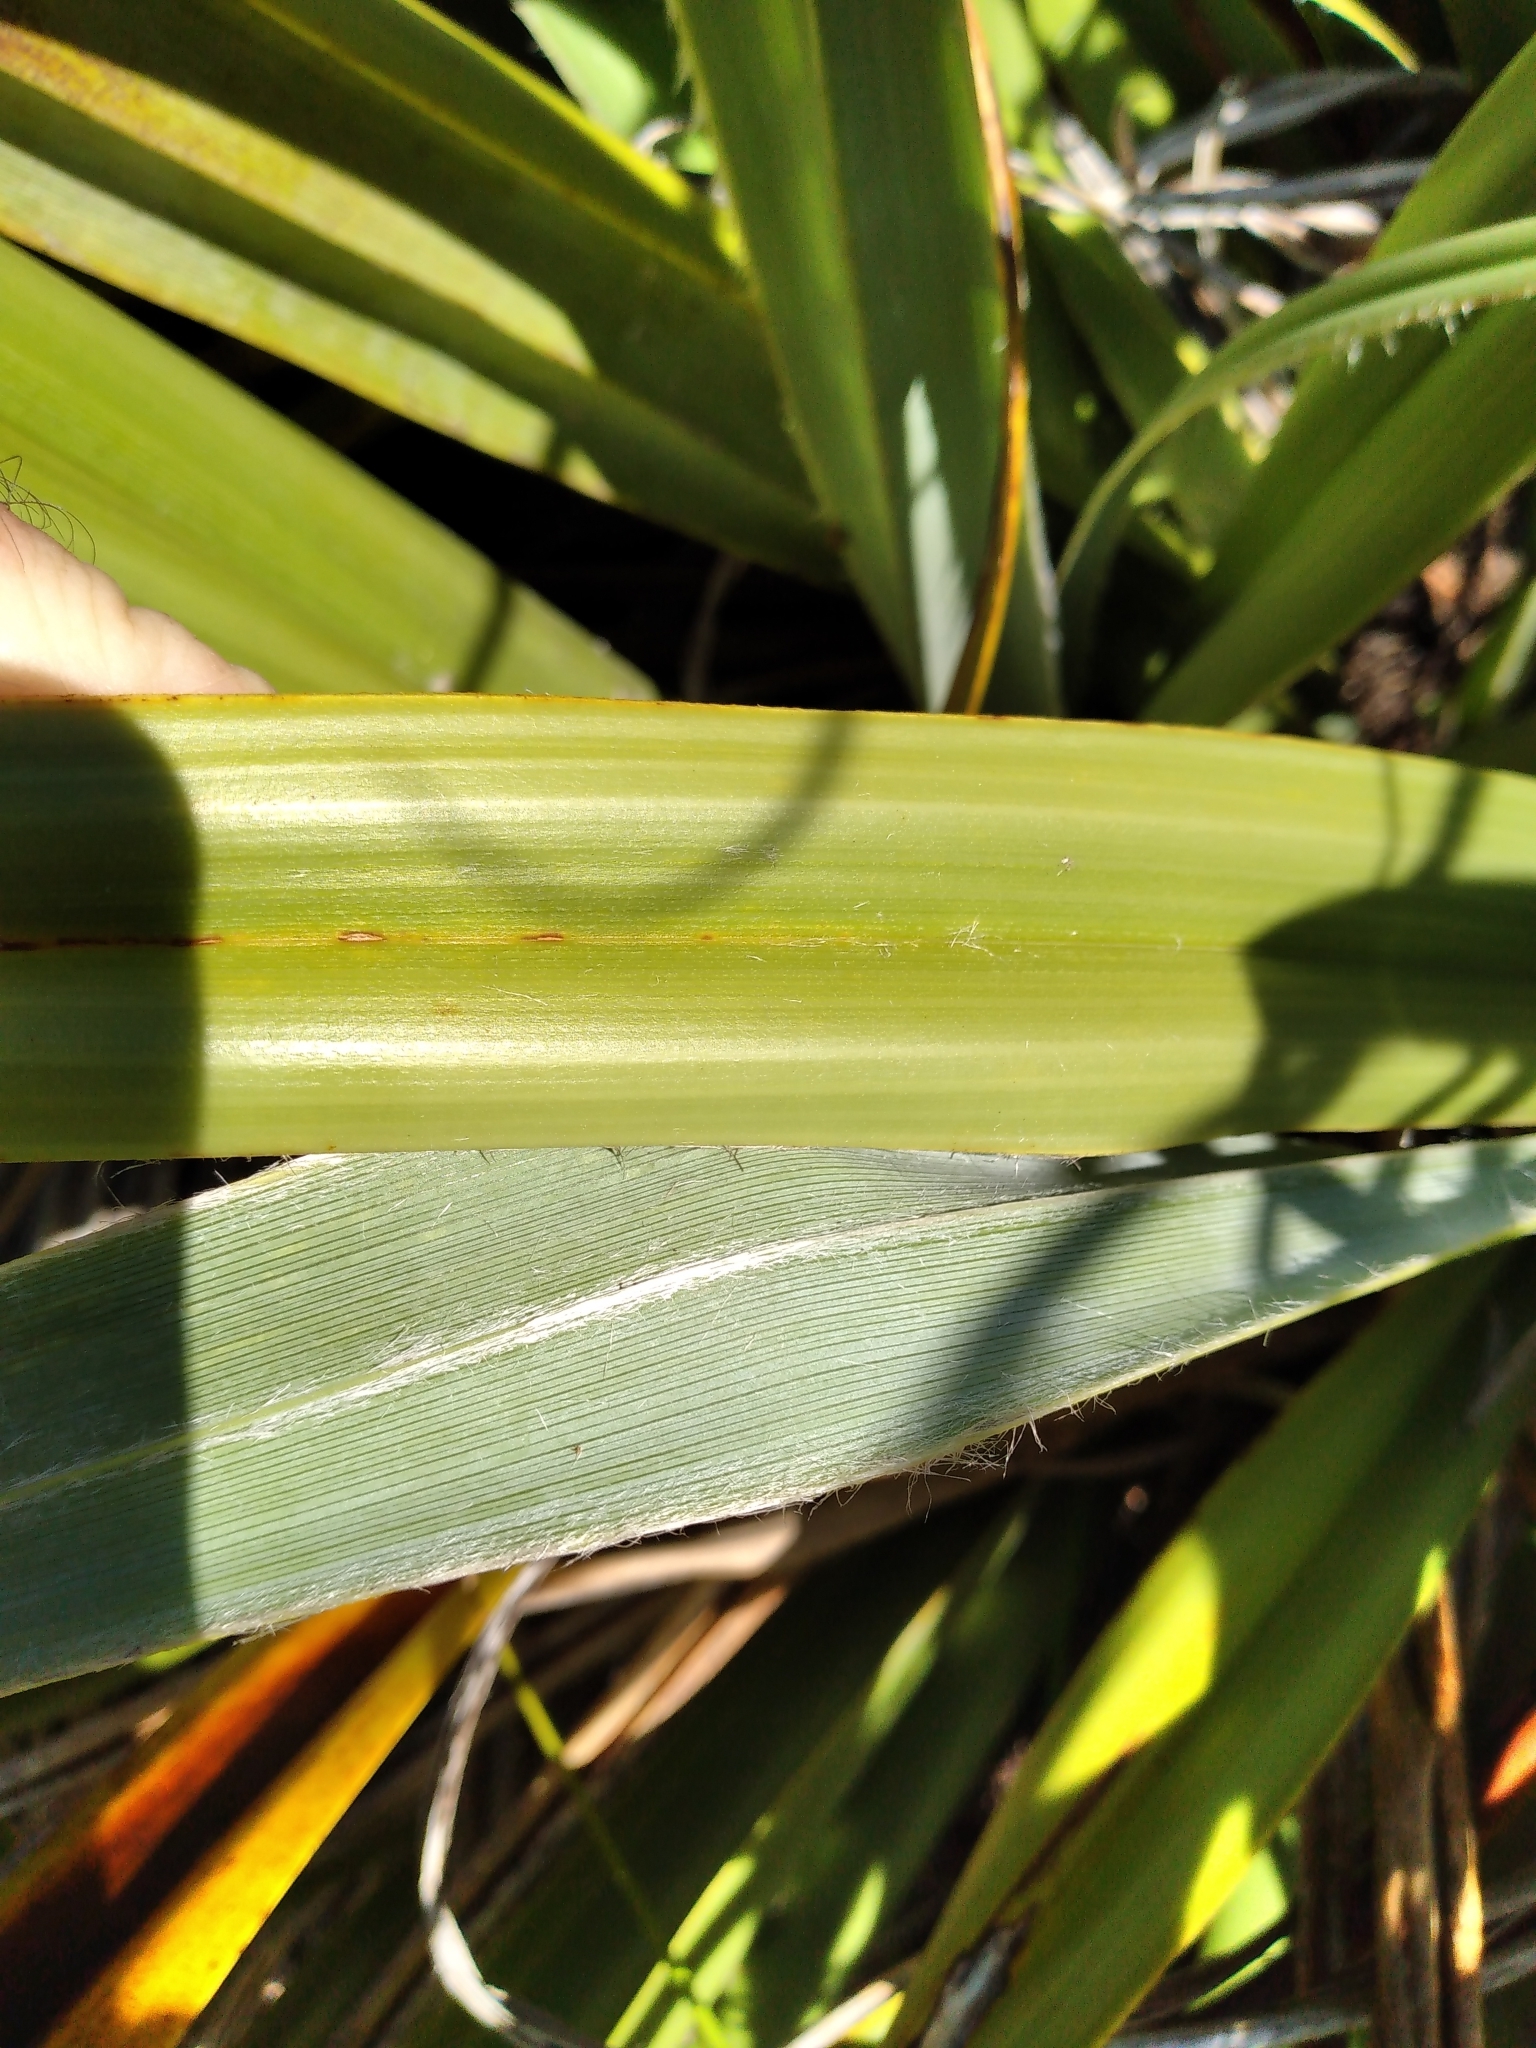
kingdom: Plantae
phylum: Tracheophyta
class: Liliopsida
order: Asparagales
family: Asteliaceae
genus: Astelia
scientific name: Astelia skottsbergii
